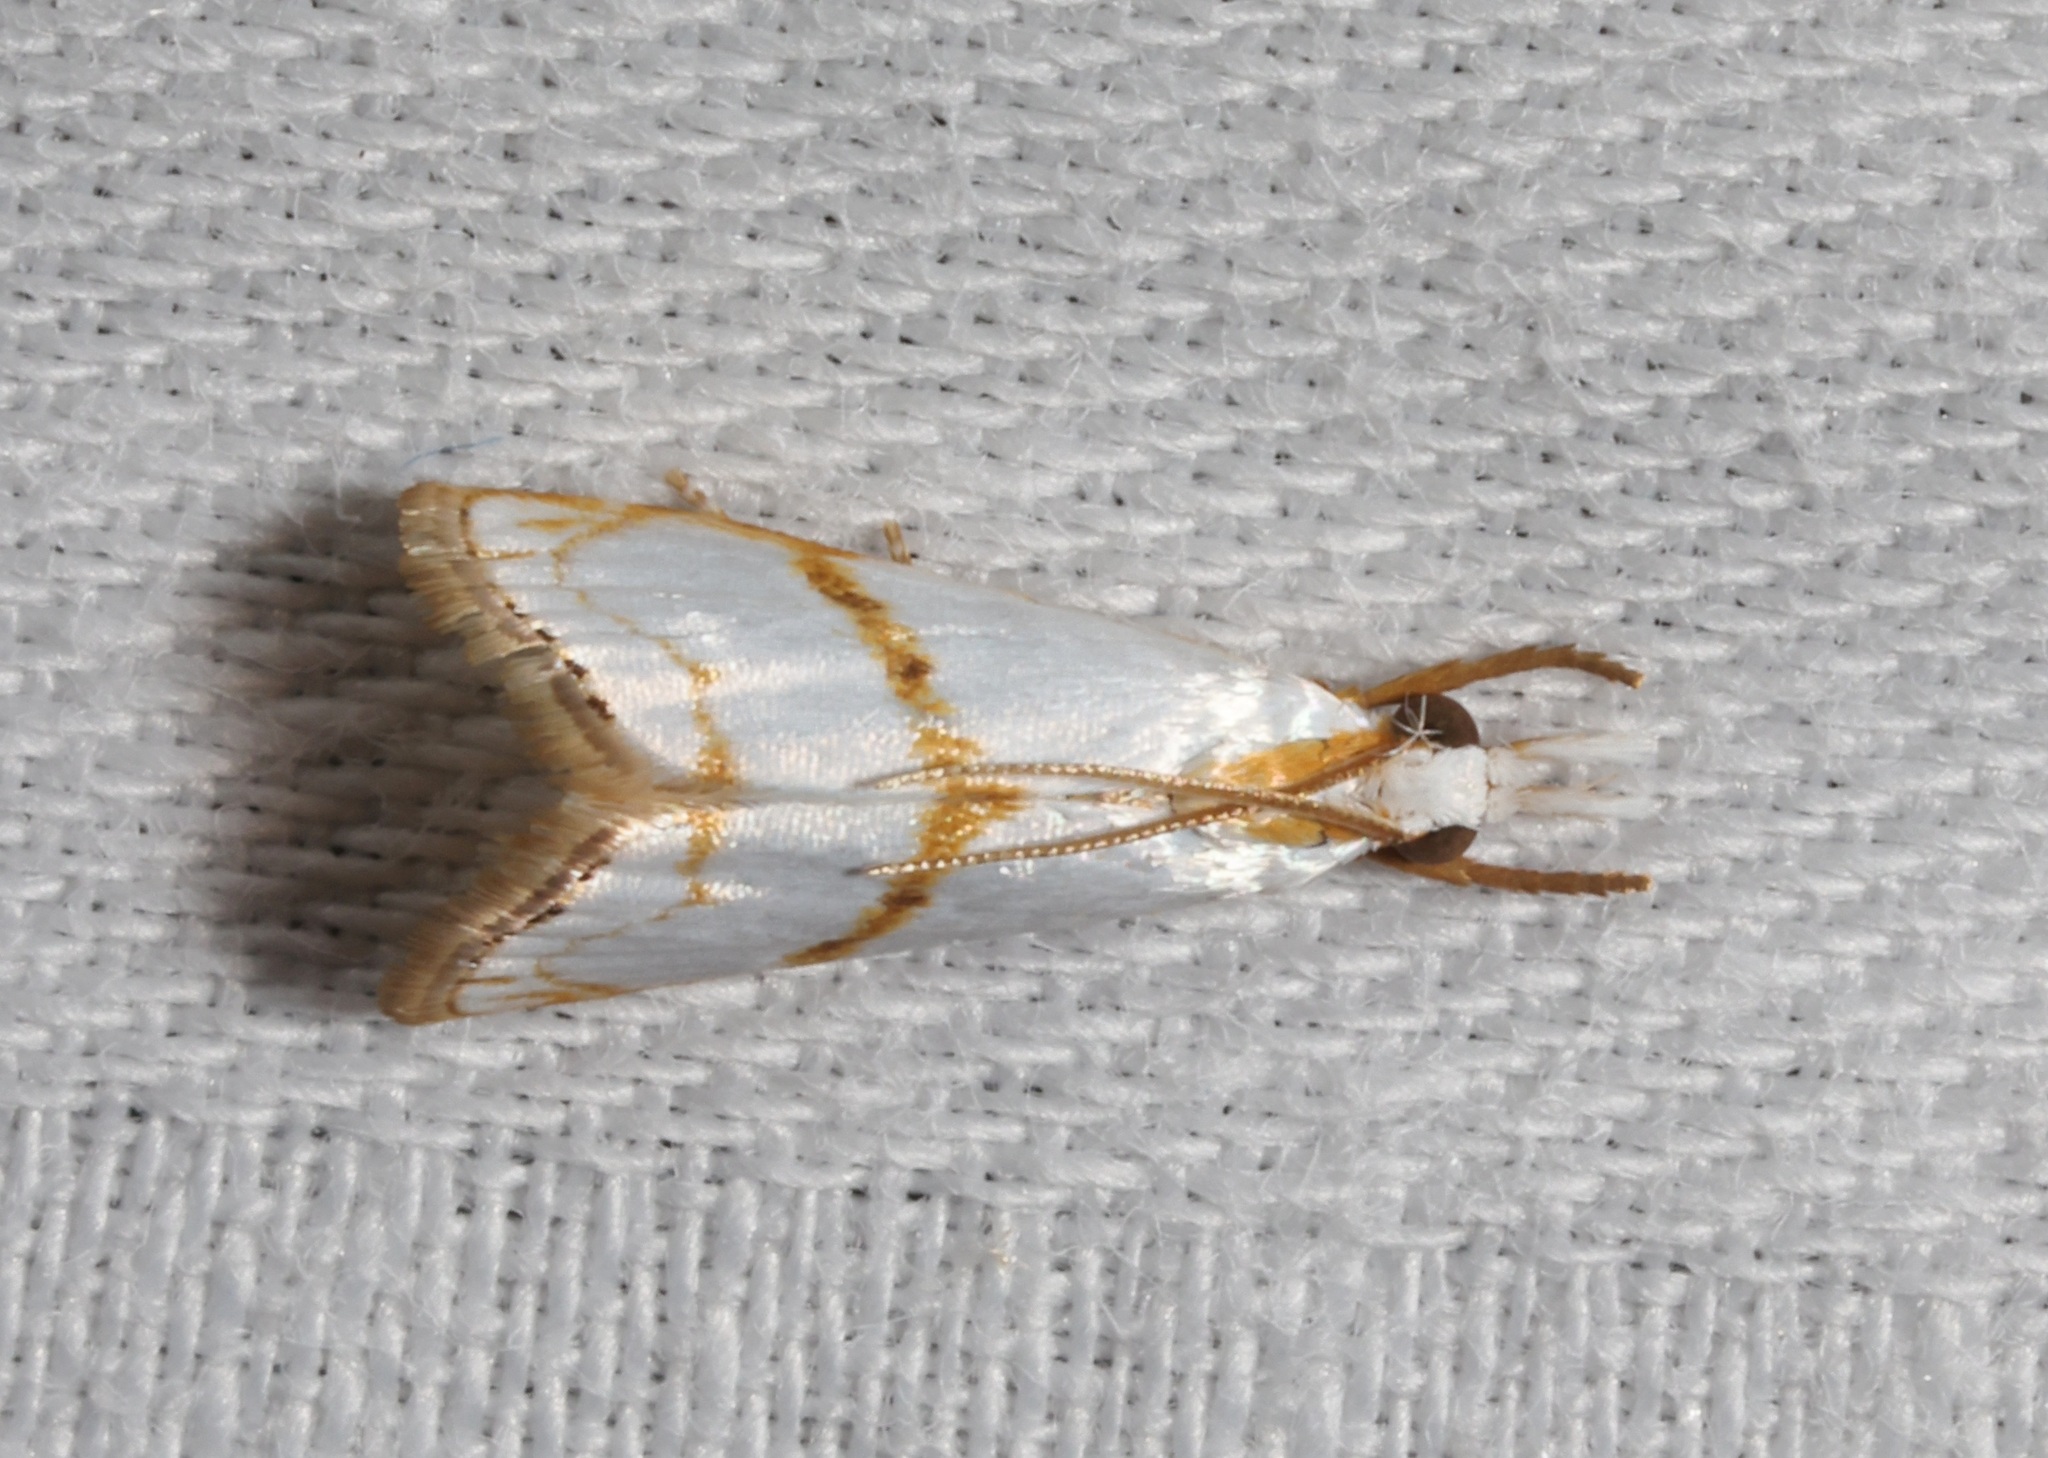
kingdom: Animalia
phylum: Arthropoda
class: Insecta
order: Lepidoptera
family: Crambidae
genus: Pseudargyria
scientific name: Pseudargyria interruptella
